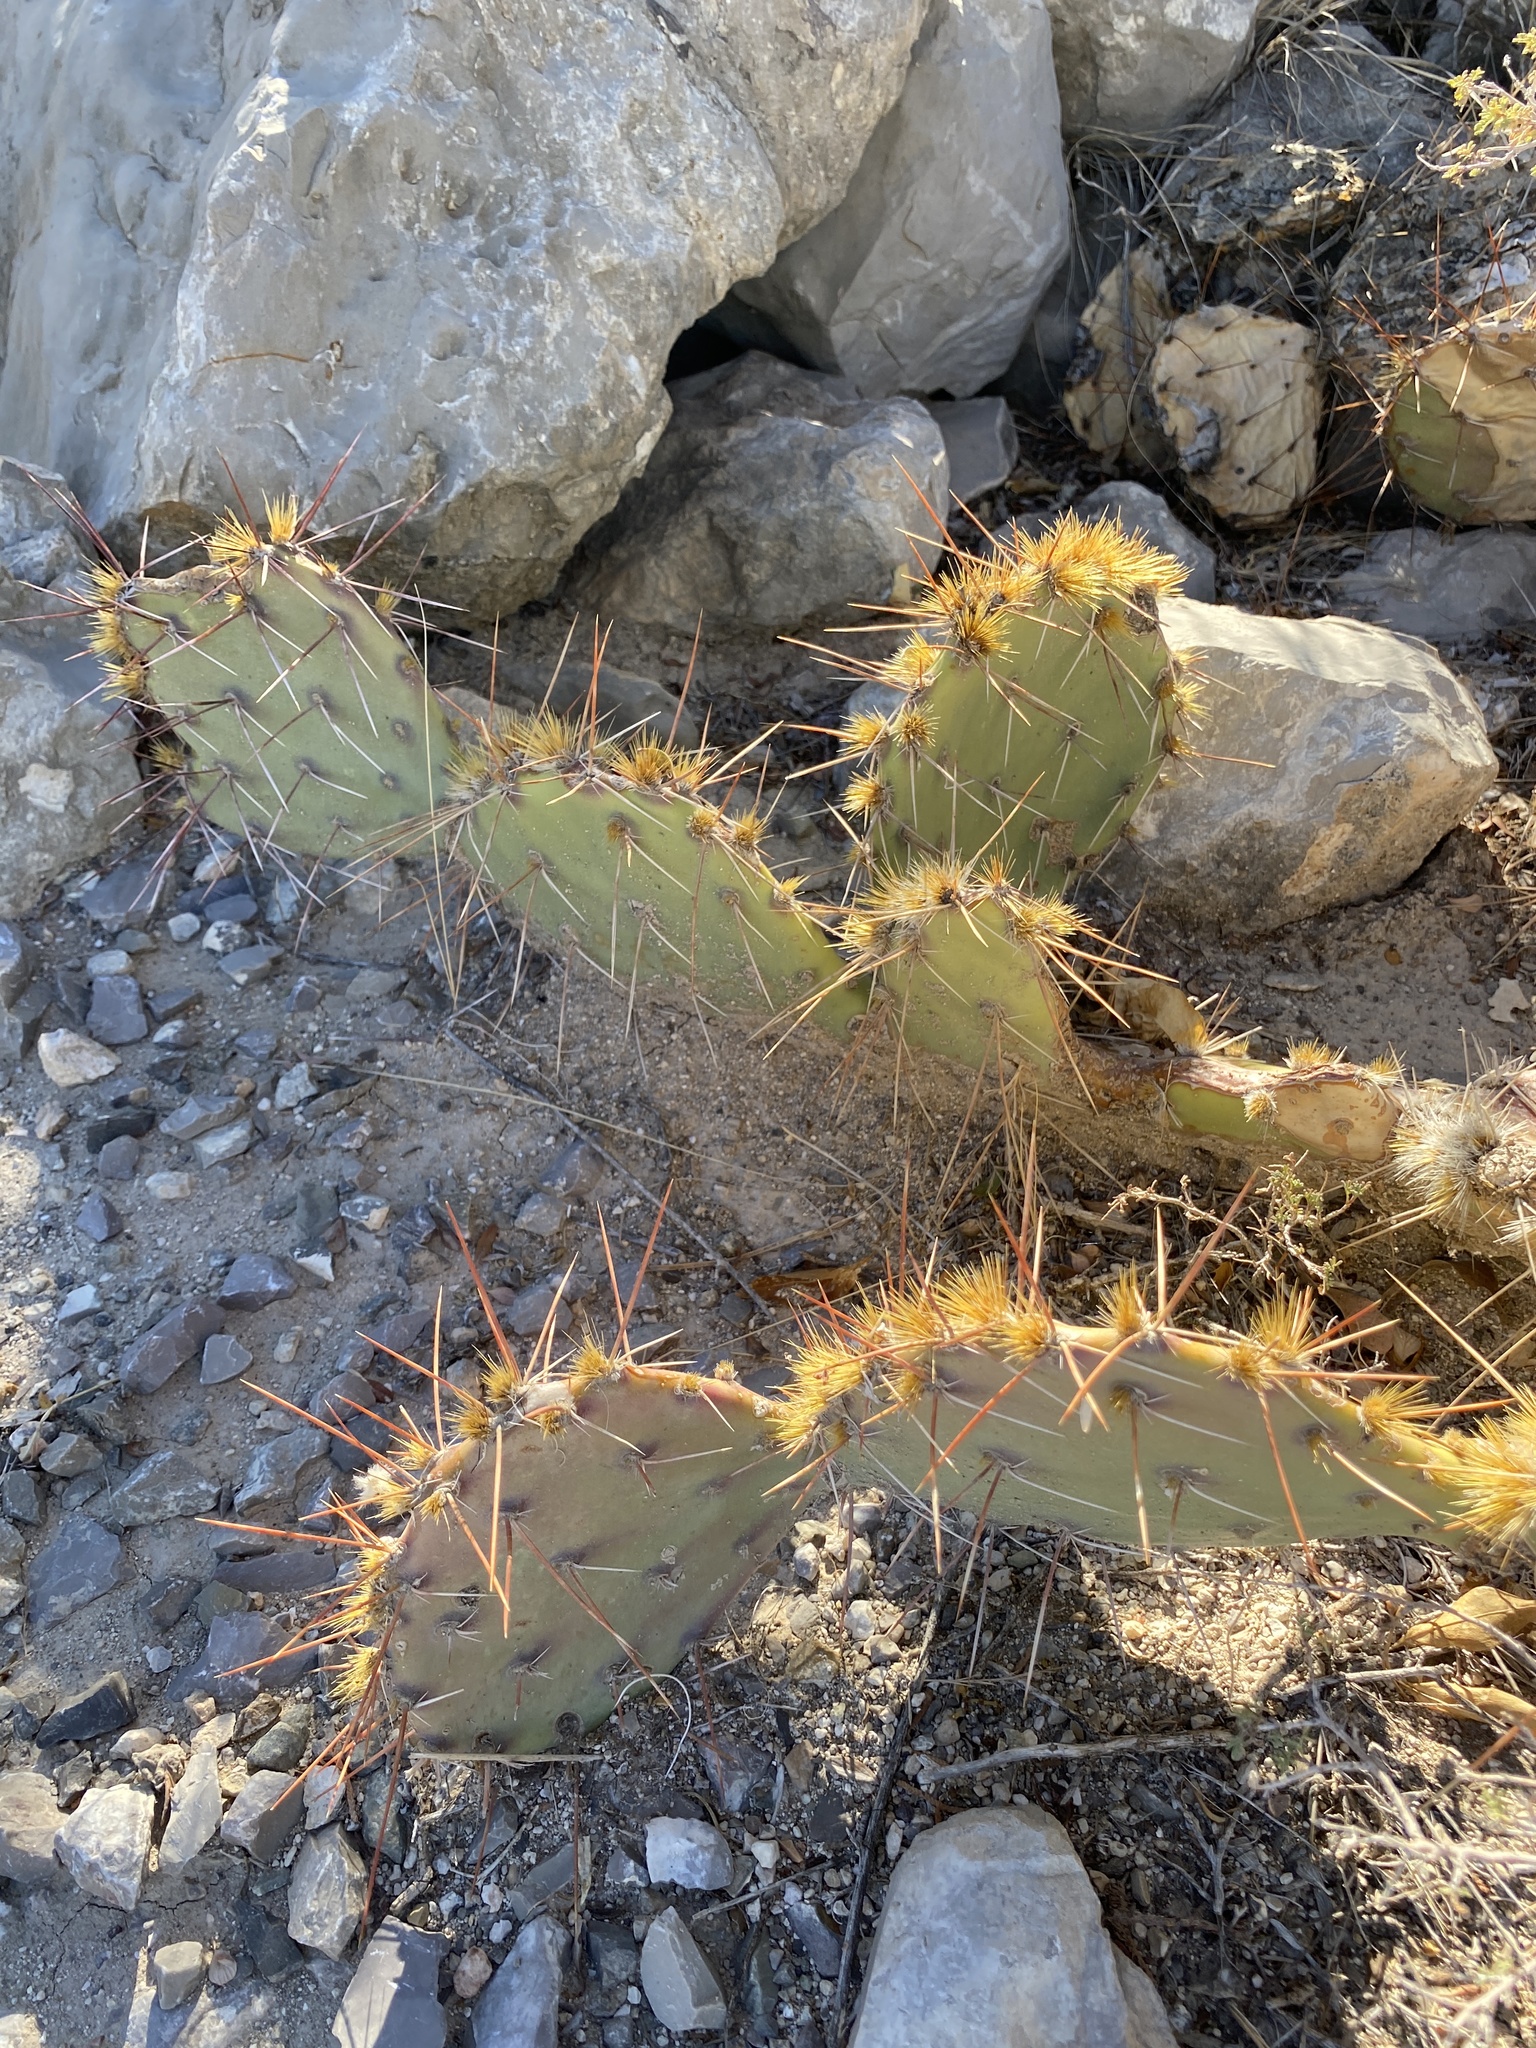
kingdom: Plantae
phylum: Tracheophyta
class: Magnoliopsida
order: Caryophyllales
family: Cactaceae
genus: Opuntia
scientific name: Opuntia phaeacantha
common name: New mexico prickly-pear
